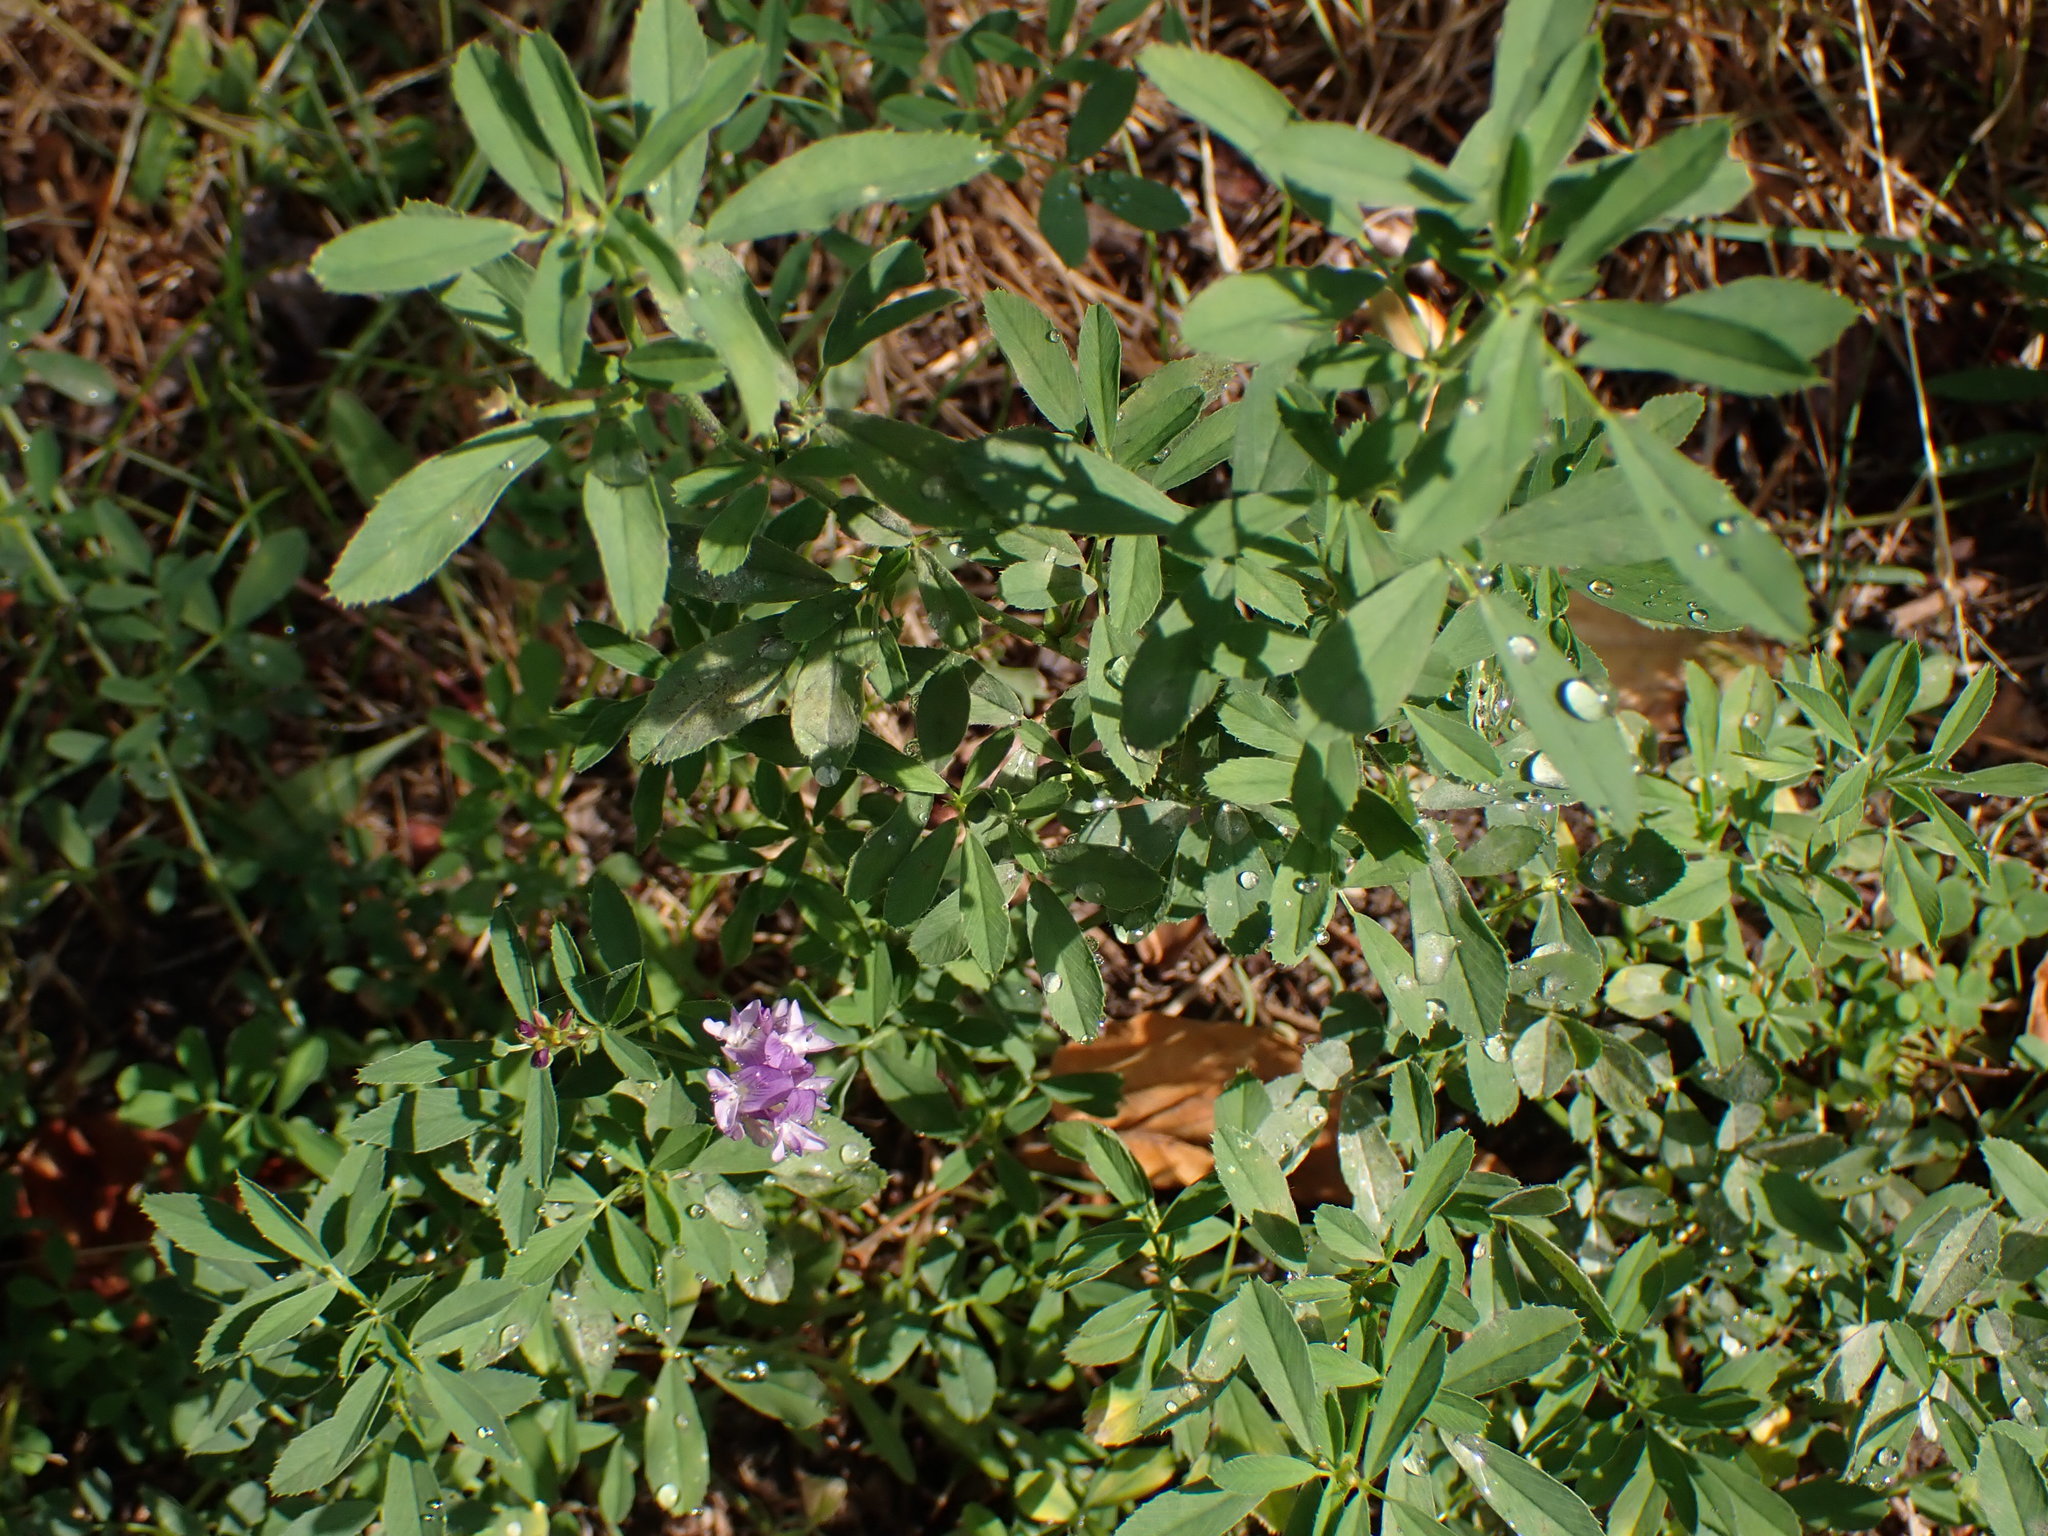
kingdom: Plantae
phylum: Tracheophyta
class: Magnoliopsida
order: Fabales
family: Fabaceae
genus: Medicago
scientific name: Medicago sativa
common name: Alfalfa
